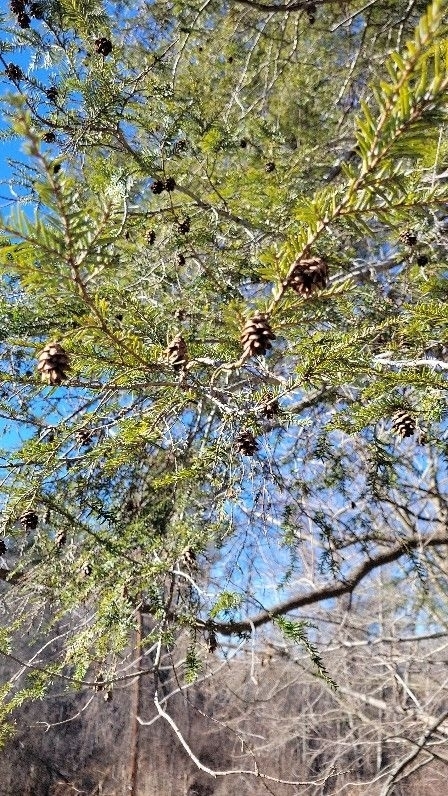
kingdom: Plantae
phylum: Tracheophyta
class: Pinopsida
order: Pinales
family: Pinaceae
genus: Tsuga
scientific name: Tsuga canadensis
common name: Eastern hemlock
